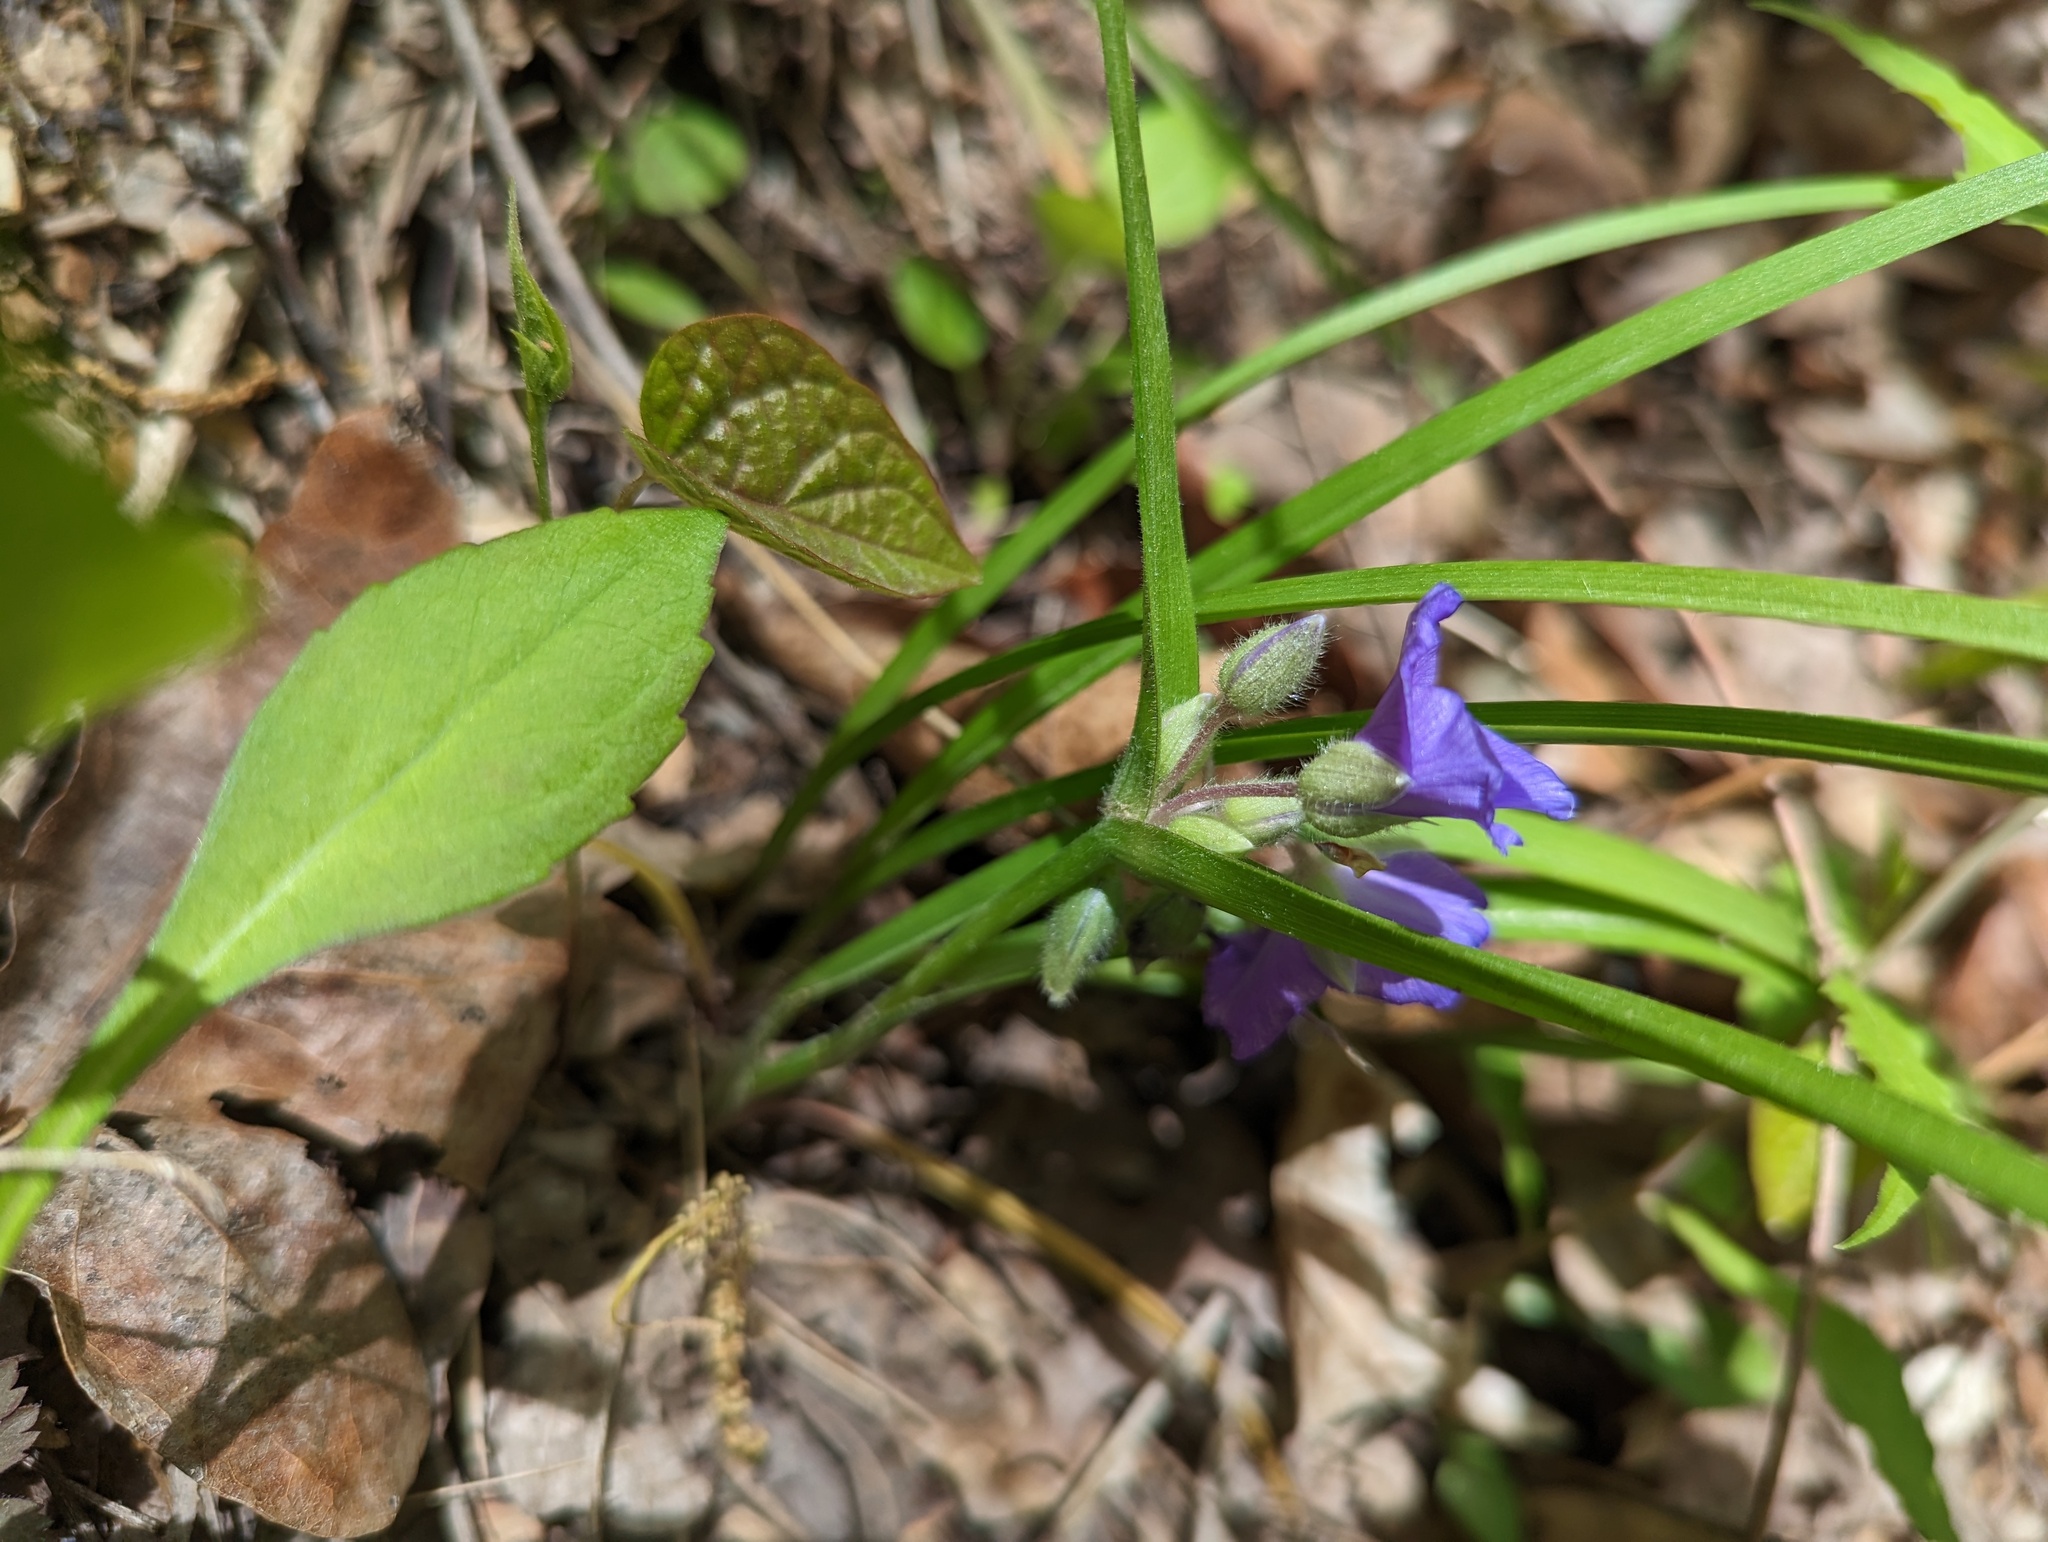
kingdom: Plantae
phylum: Tracheophyta
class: Liliopsida
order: Commelinales
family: Commelinaceae
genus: Tradescantia
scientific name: Tradescantia virginiana
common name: Spiderwort
